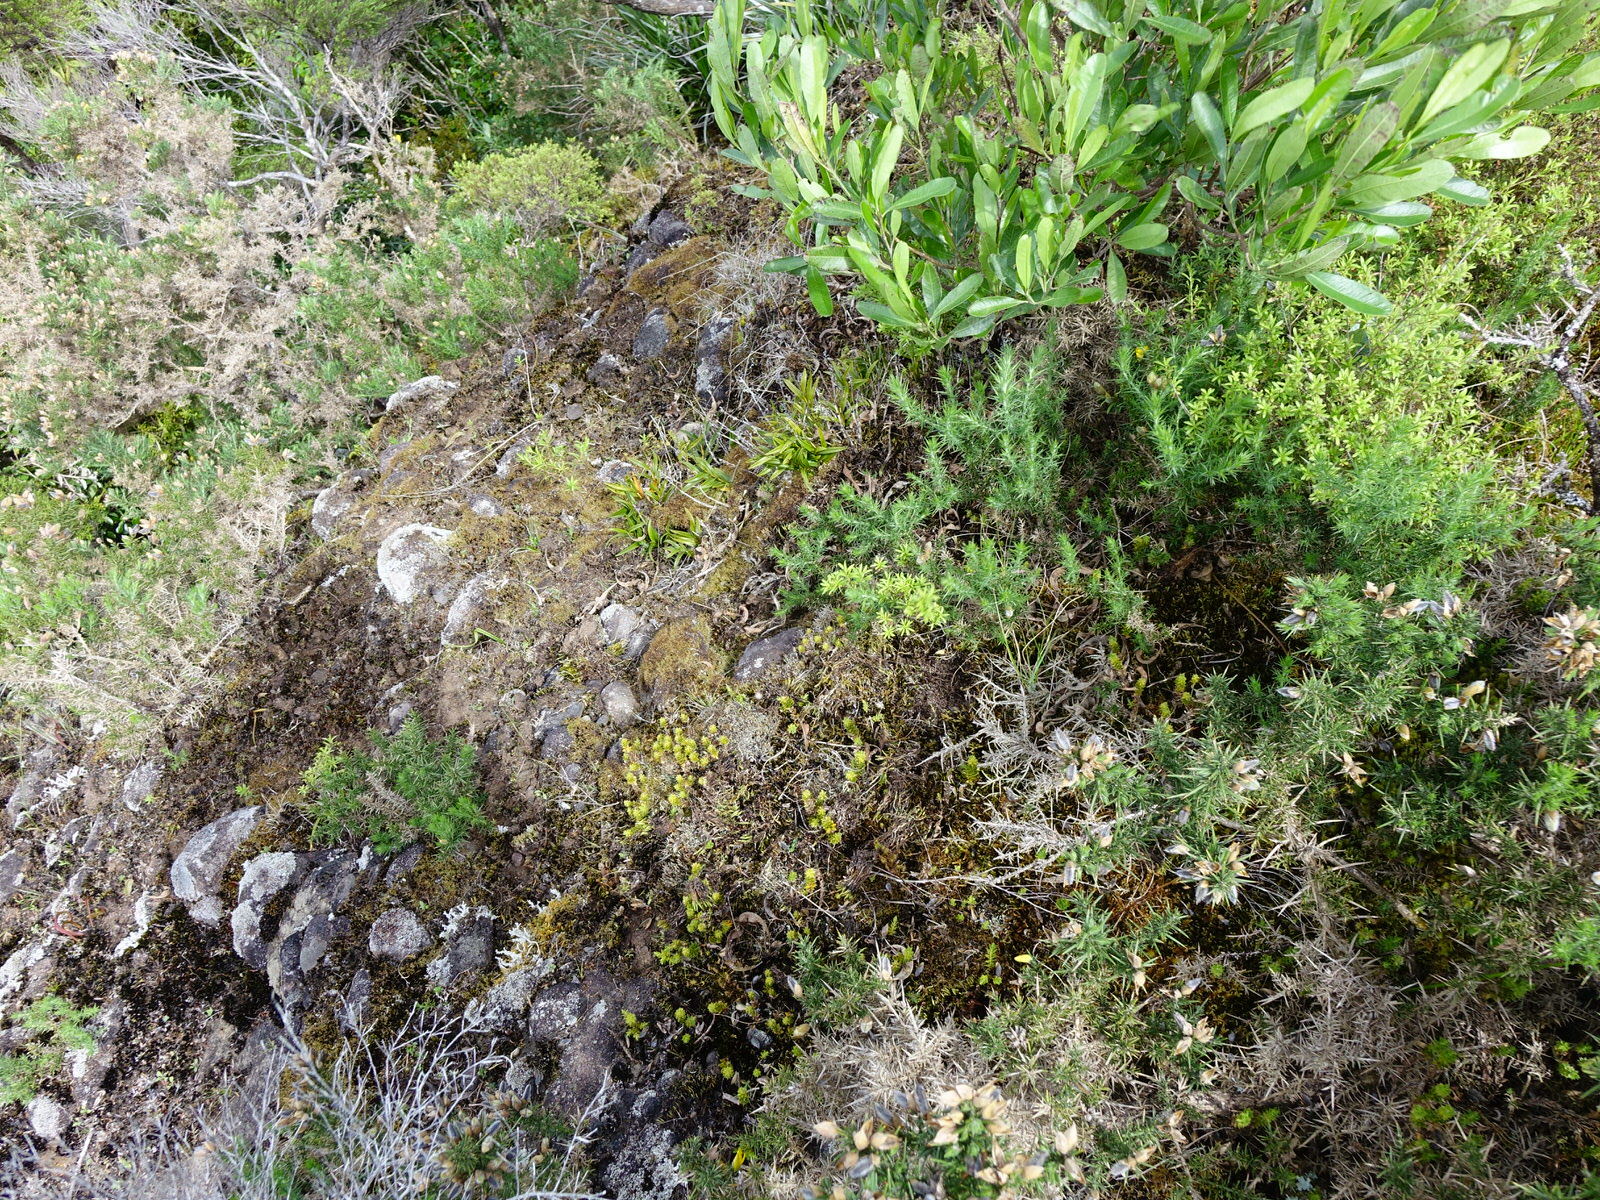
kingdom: Plantae
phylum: Tracheophyta
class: Magnoliopsida
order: Ericales
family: Ericaceae
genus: Styphelia
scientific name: Styphelia nesophila
